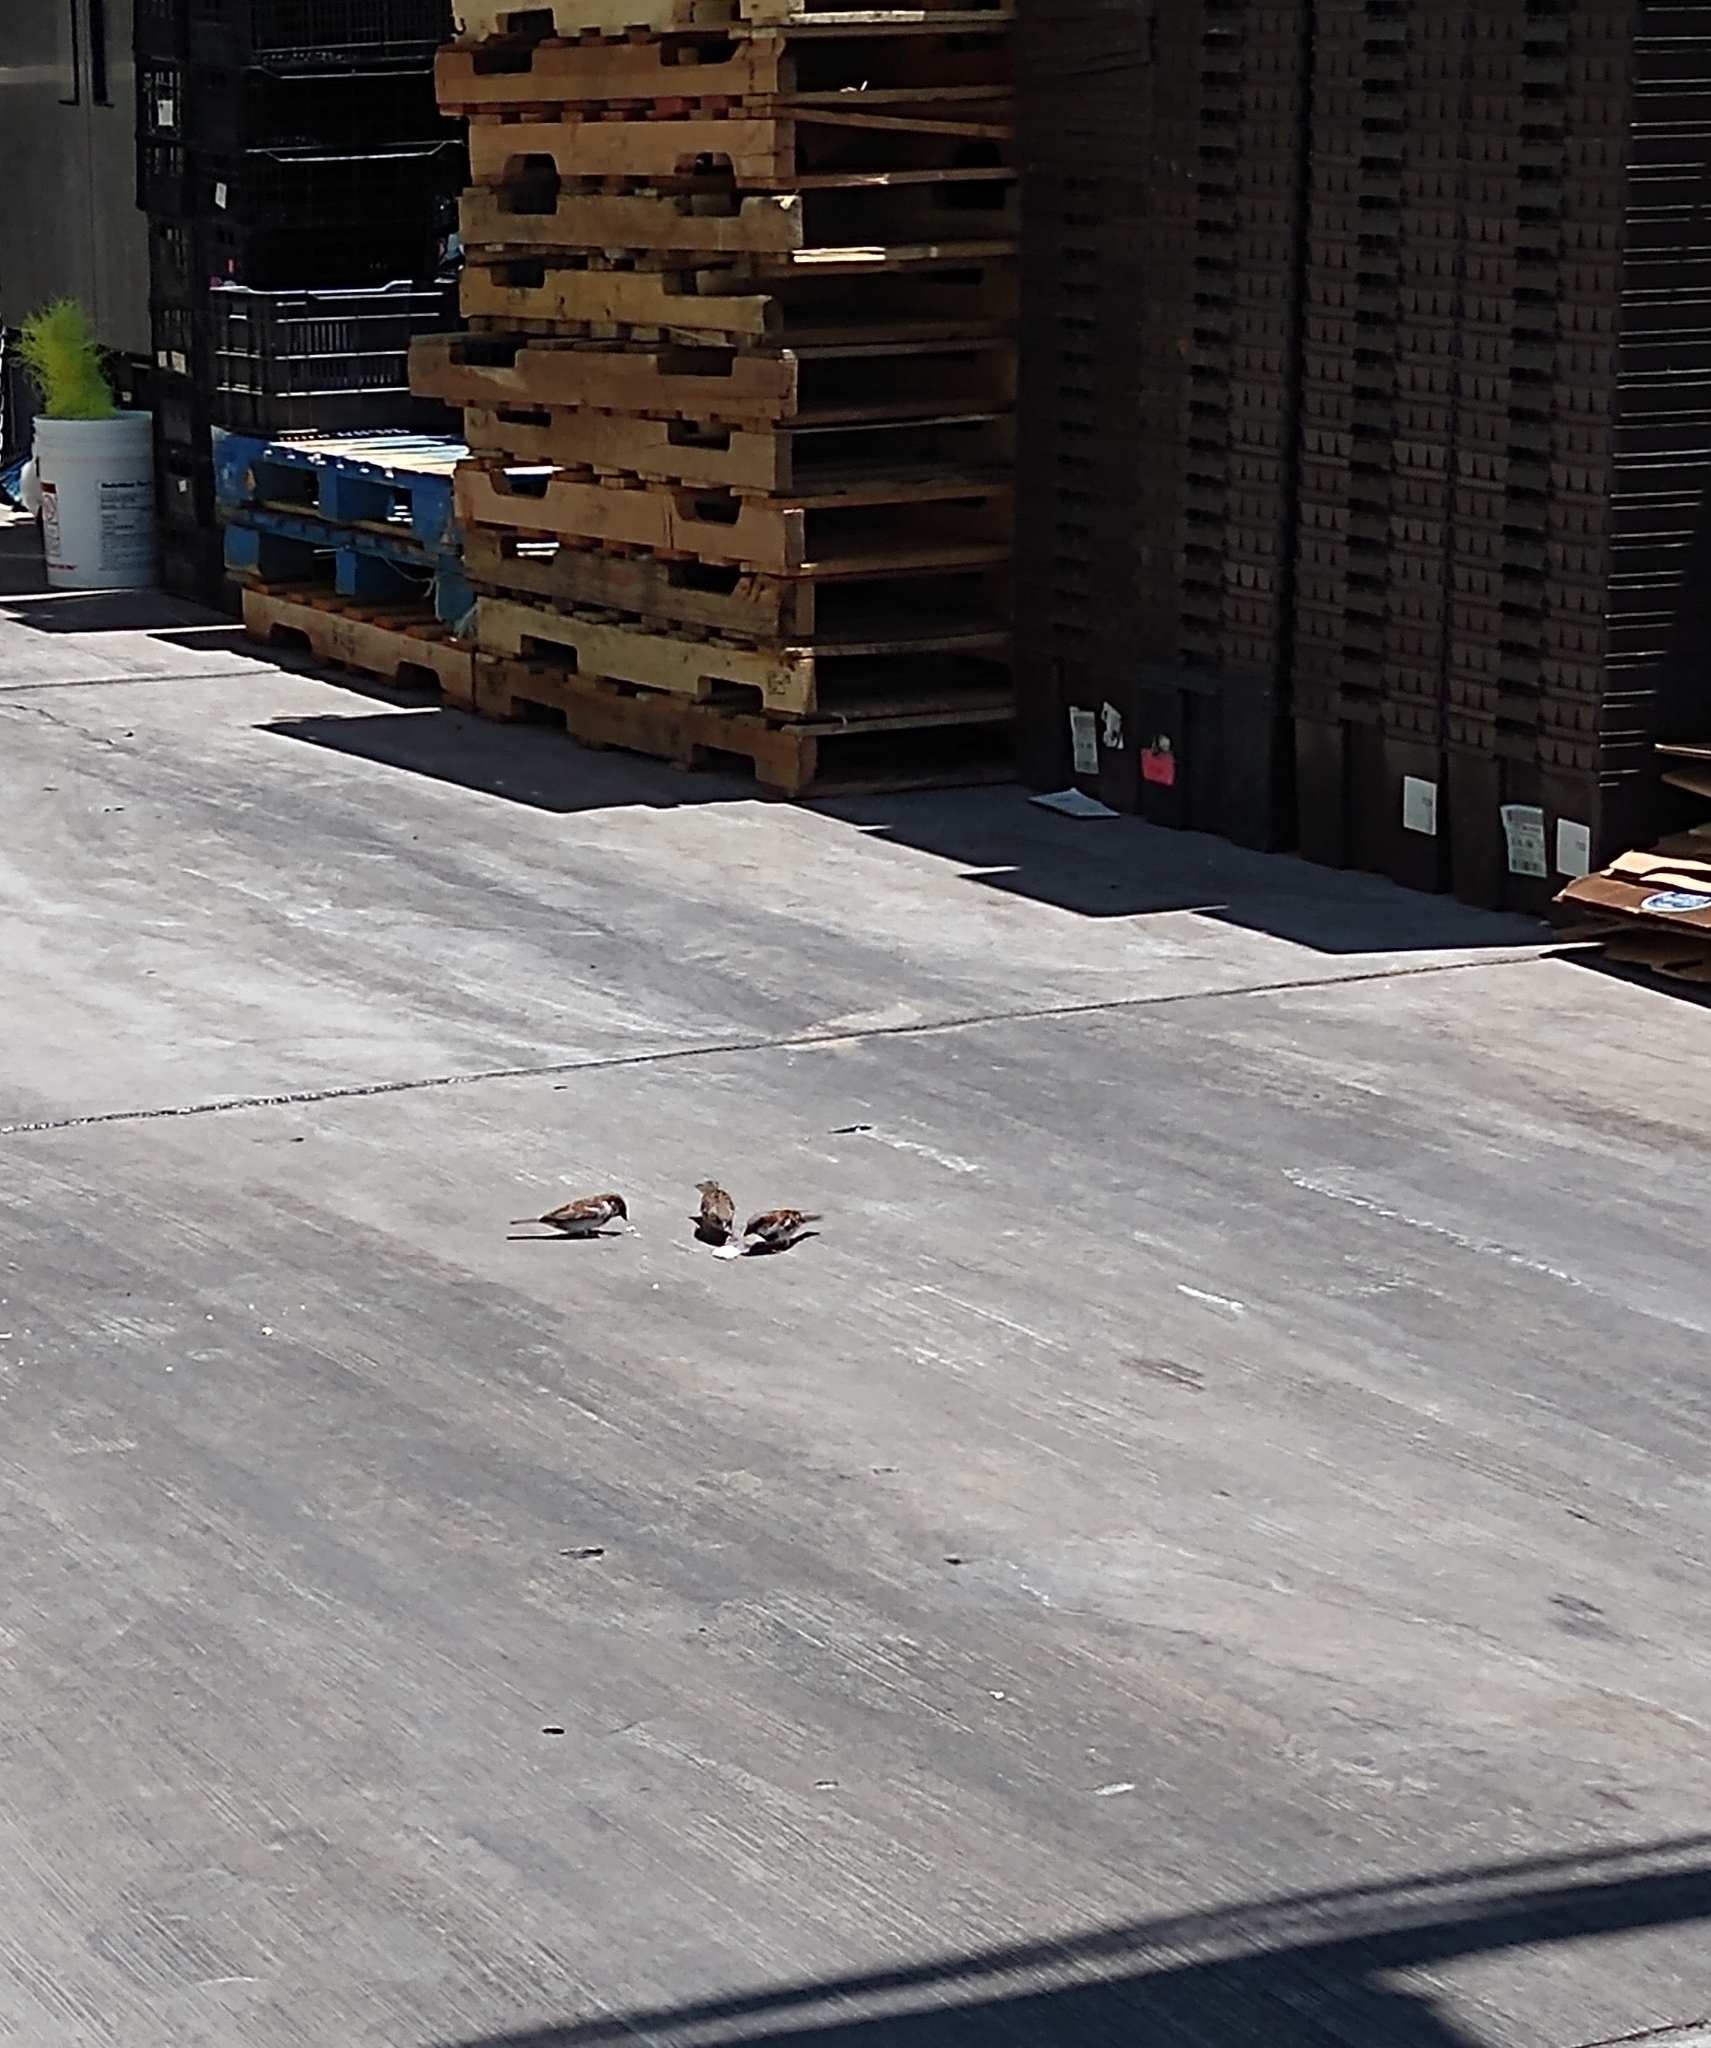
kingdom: Animalia
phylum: Chordata
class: Aves
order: Passeriformes
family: Passeridae
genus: Passer
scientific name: Passer domesticus
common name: House sparrow
